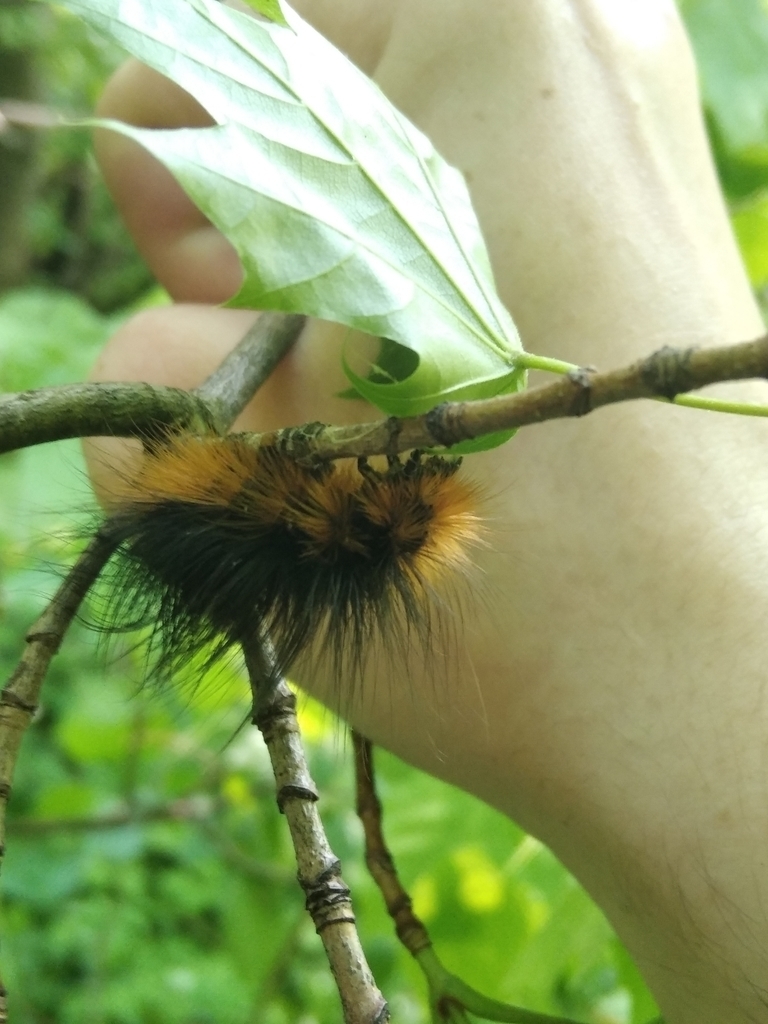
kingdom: Animalia
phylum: Arthropoda
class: Insecta
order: Lepidoptera
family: Erebidae
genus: Arctia
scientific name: Arctia caja
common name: Garden tiger
